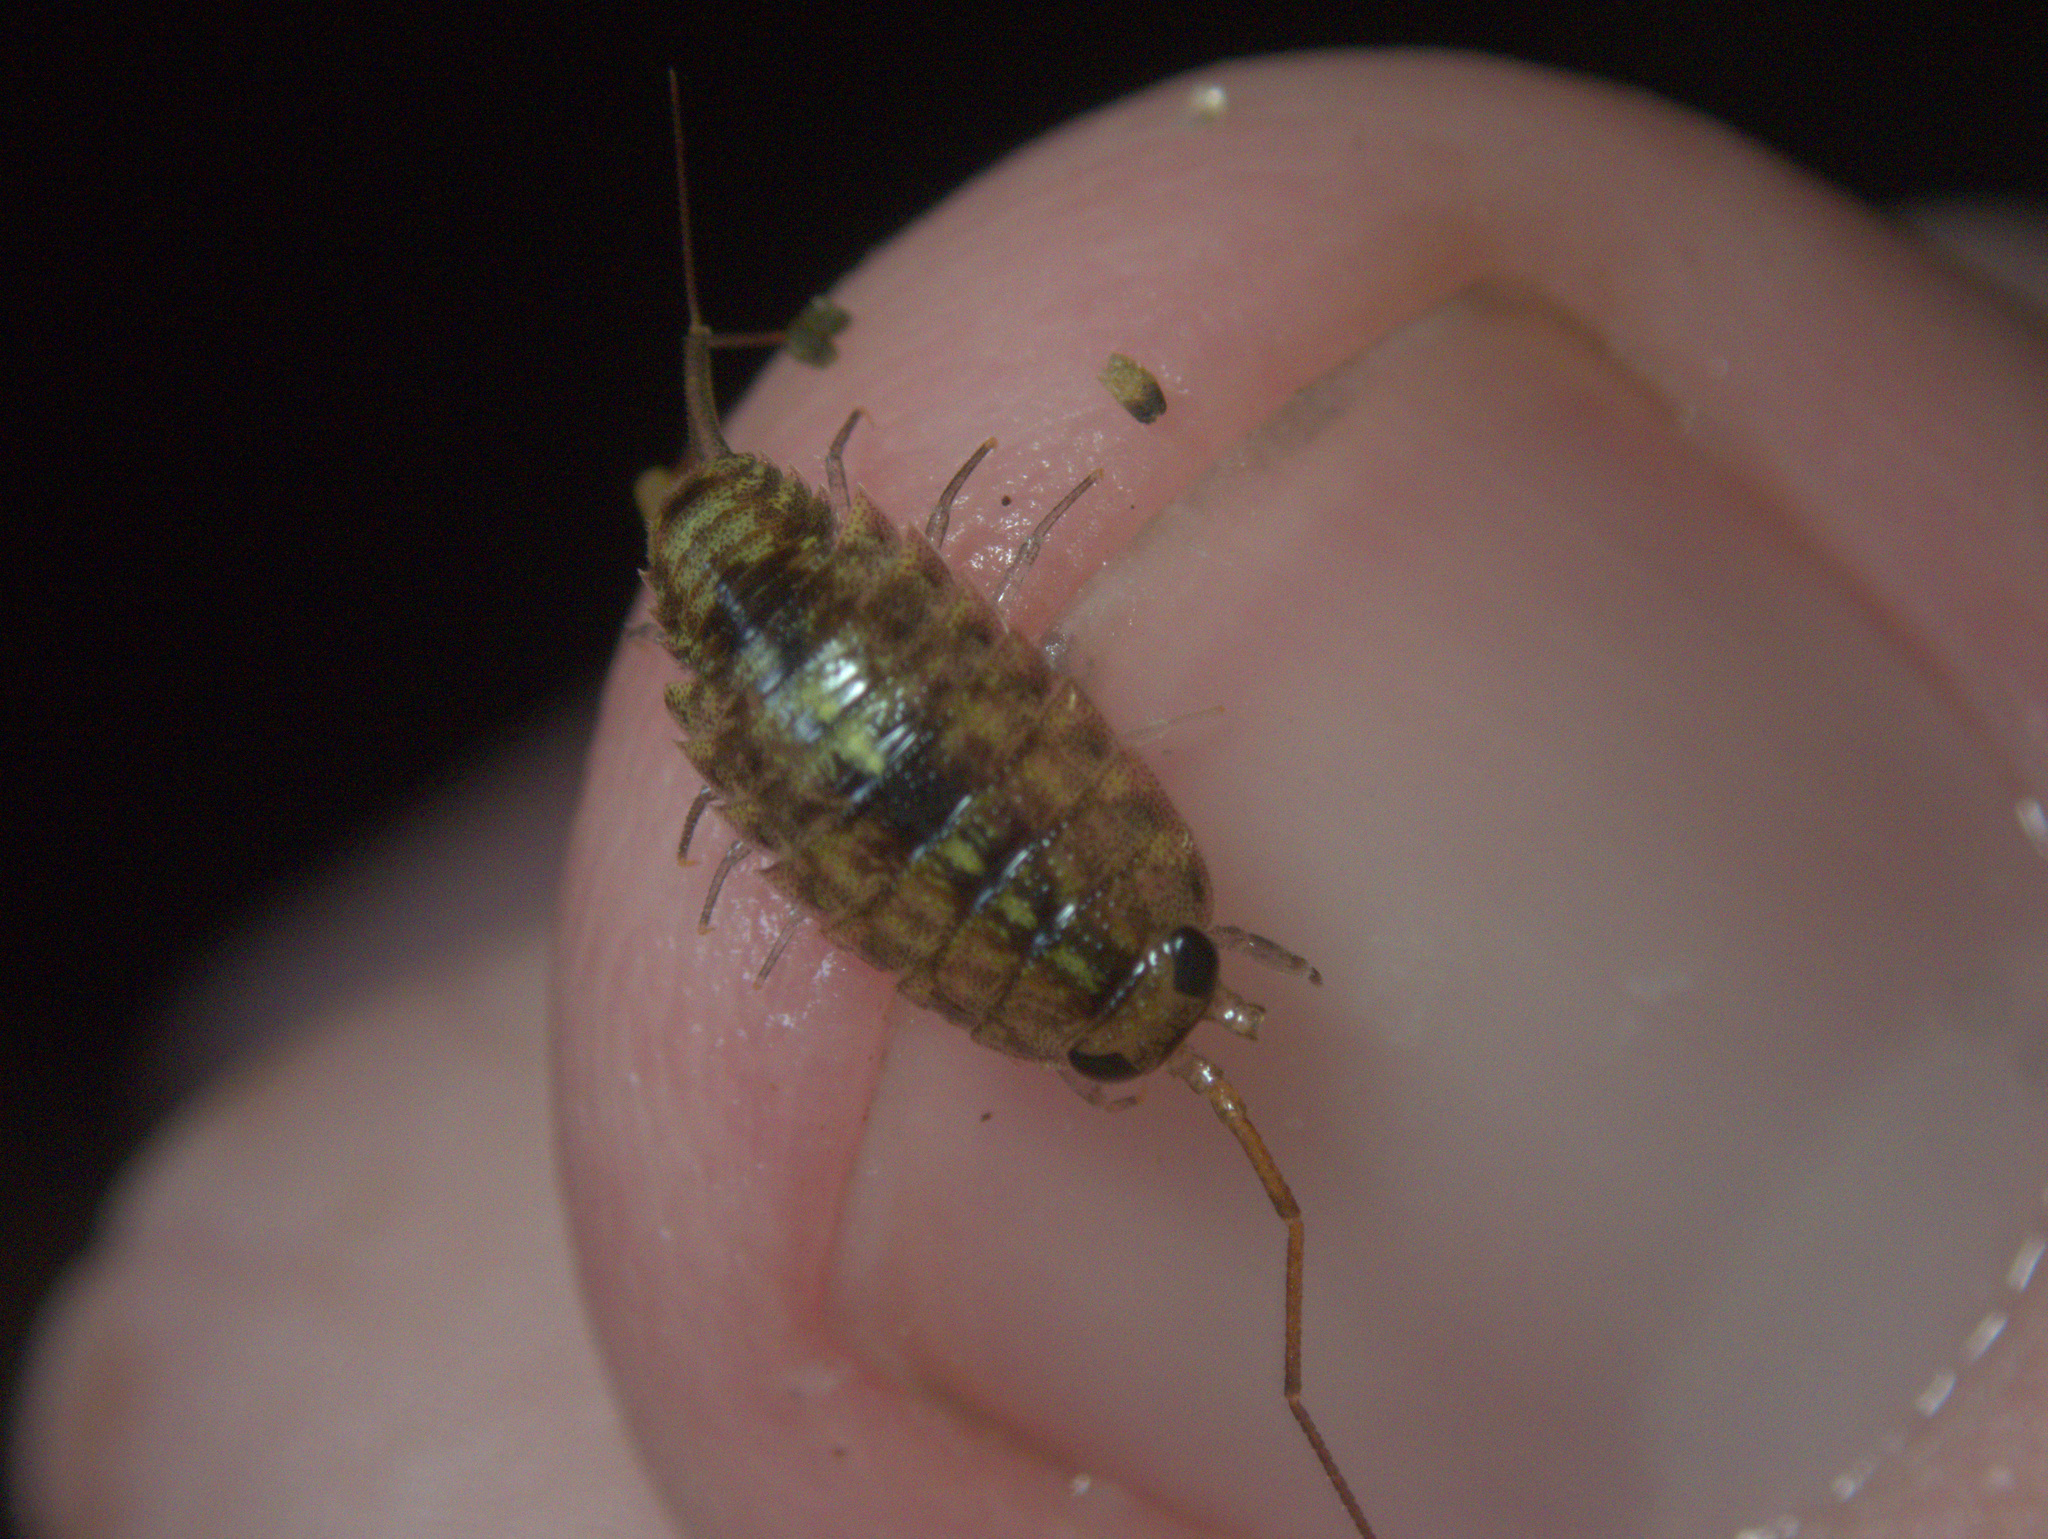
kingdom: Animalia
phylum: Arthropoda
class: Malacostraca
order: Isopoda
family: Ligiidae
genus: Ligia
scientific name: Ligia novizealandiae
